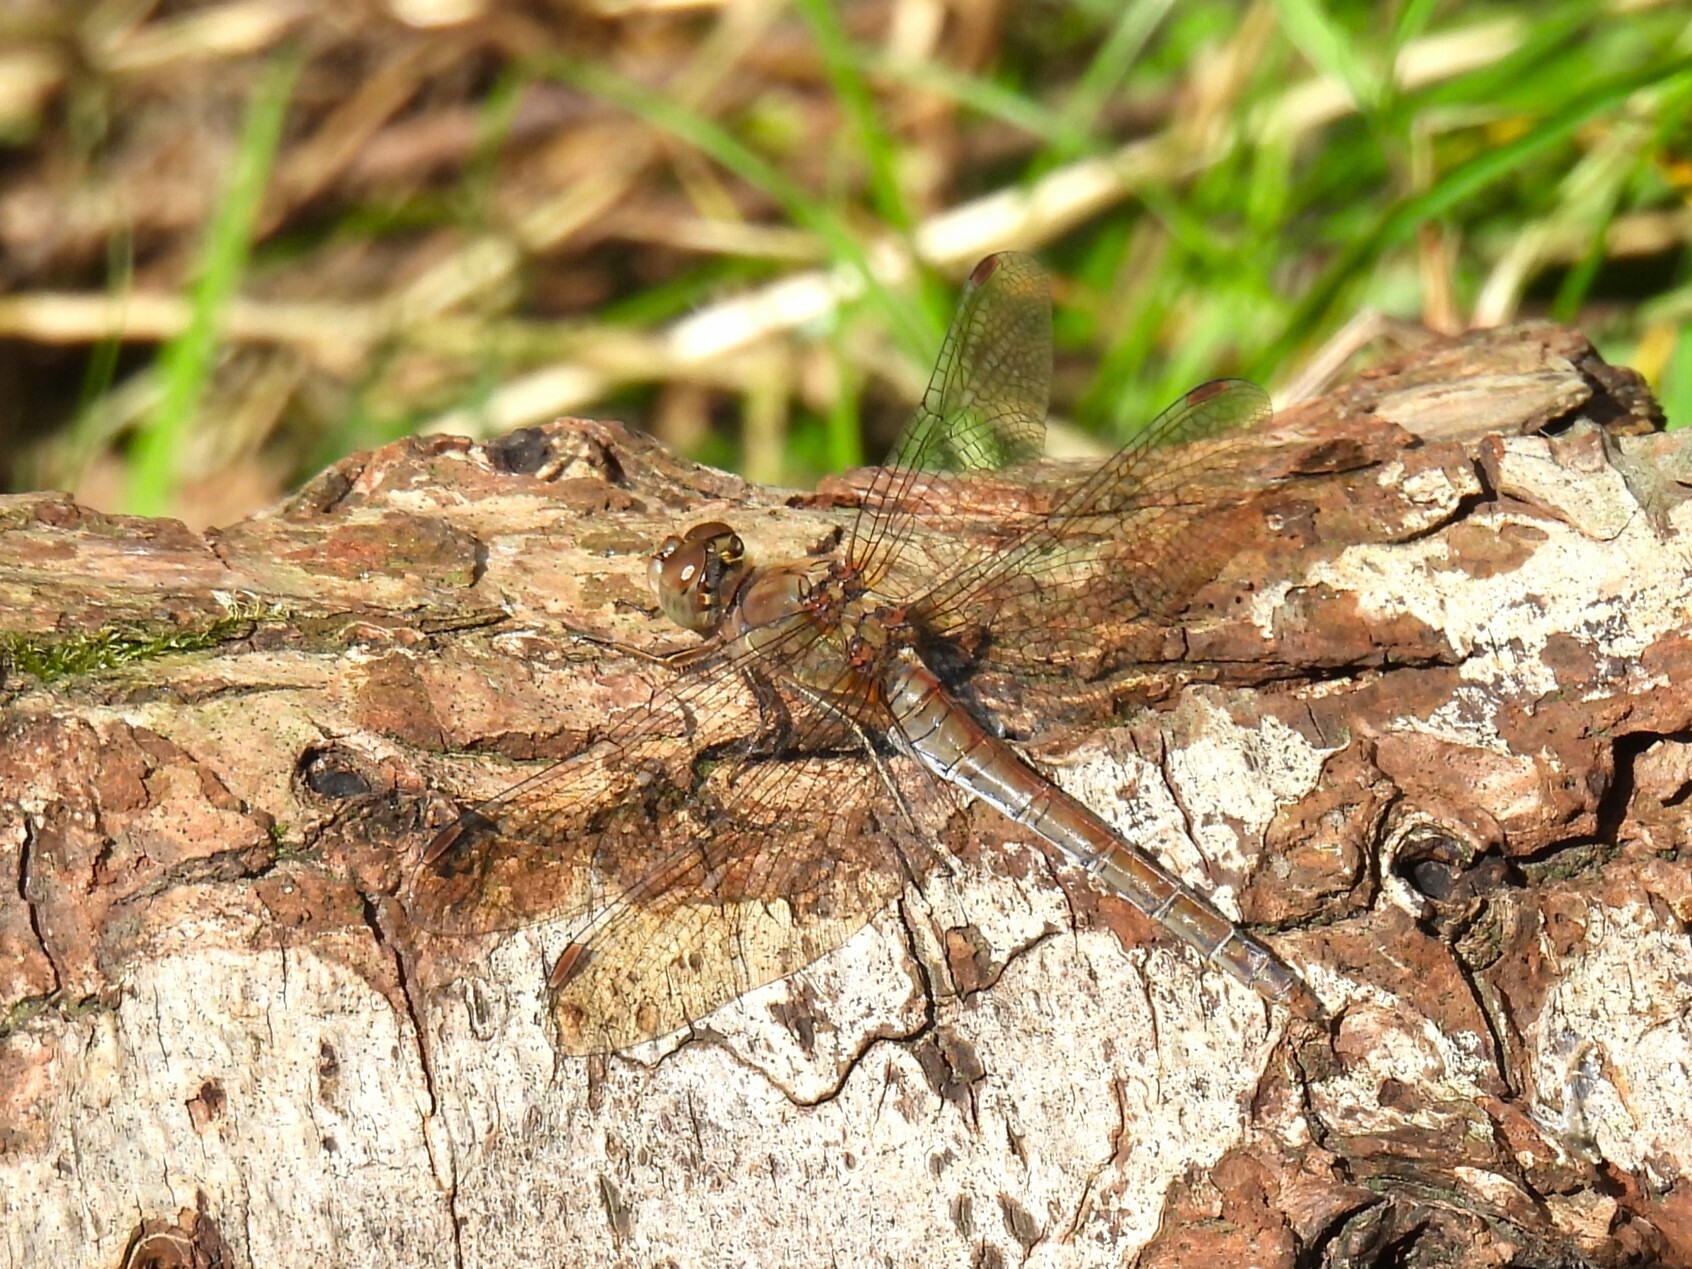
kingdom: Animalia
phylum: Arthropoda
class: Insecta
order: Odonata
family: Libellulidae
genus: Sympetrum
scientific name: Sympetrum striolatum
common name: Common darter
